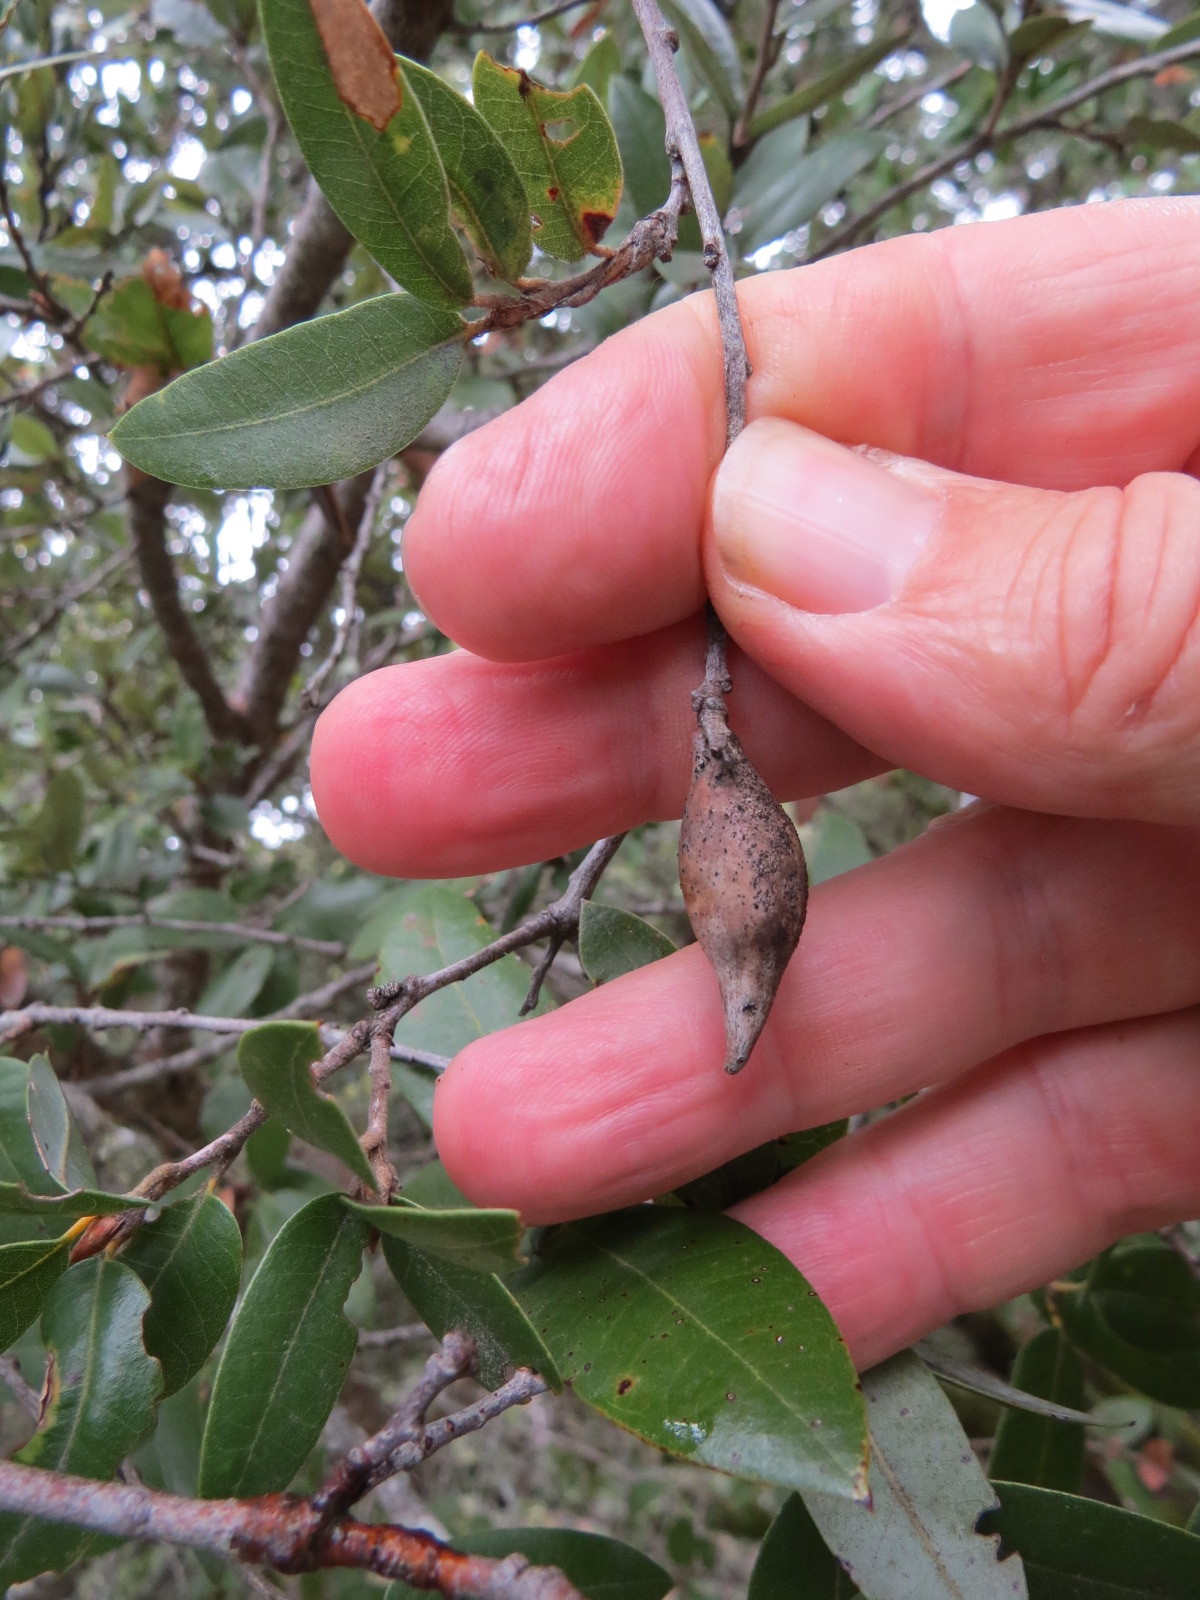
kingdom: Animalia
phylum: Arthropoda
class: Insecta
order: Hymenoptera
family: Cynipidae
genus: Heteroecus
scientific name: Heteroecus pacificus
